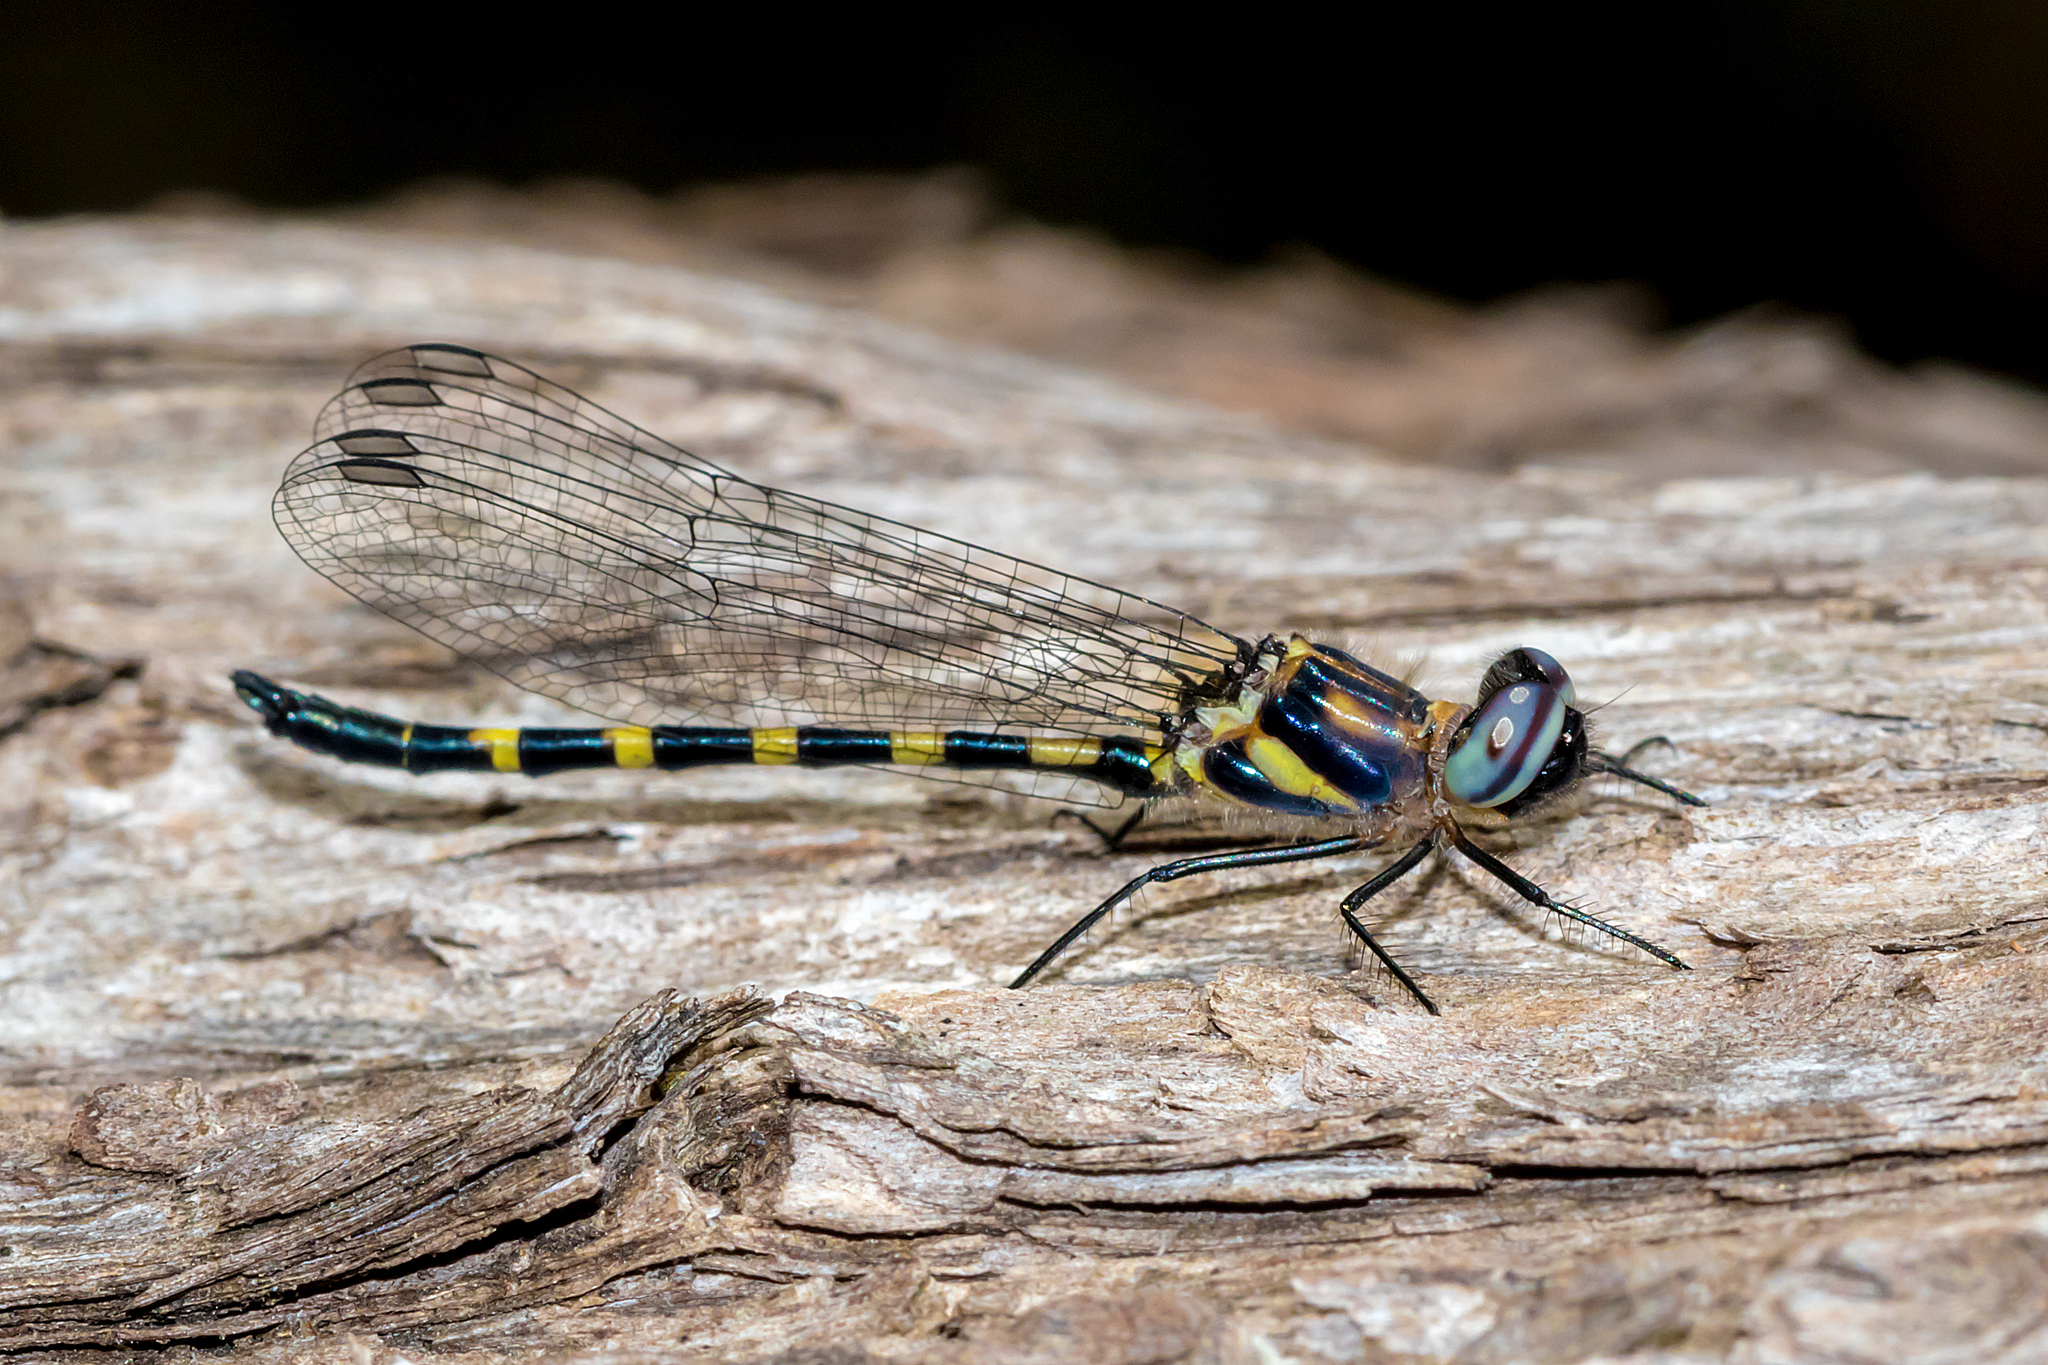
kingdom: Animalia
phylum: Arthropoda
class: Insecta
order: Odonata
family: Corduliidae
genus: Cordulephya
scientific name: Cordulephya pygmaea
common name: Common shutwing
